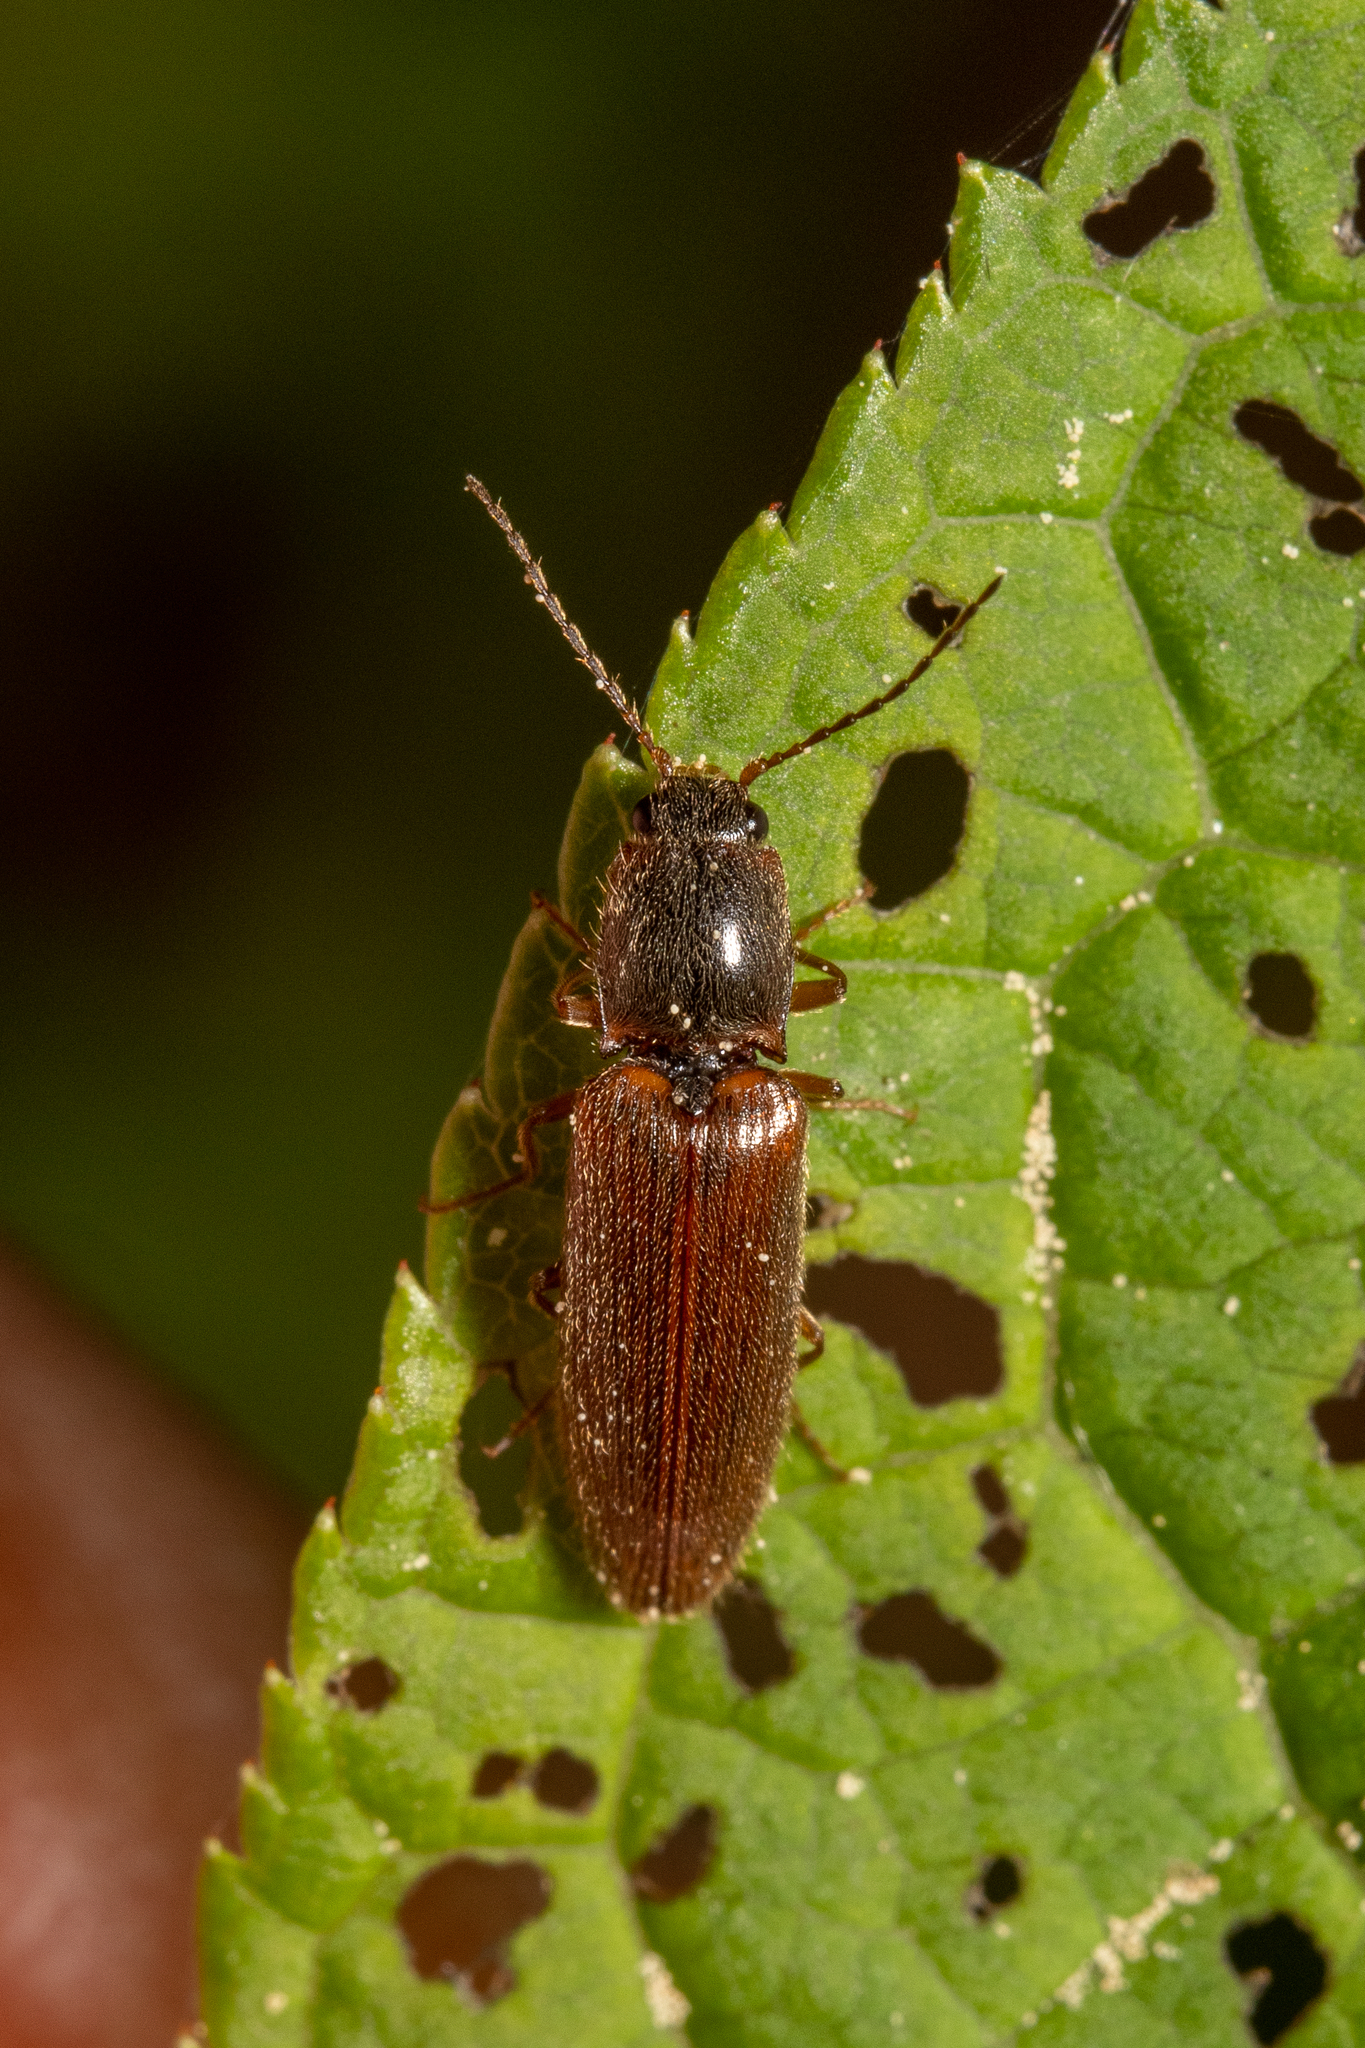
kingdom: Animalia
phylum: Arthropoda
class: Insecta
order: Coleoptera
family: Elateridae
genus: Athous
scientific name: Athous subfuscus
